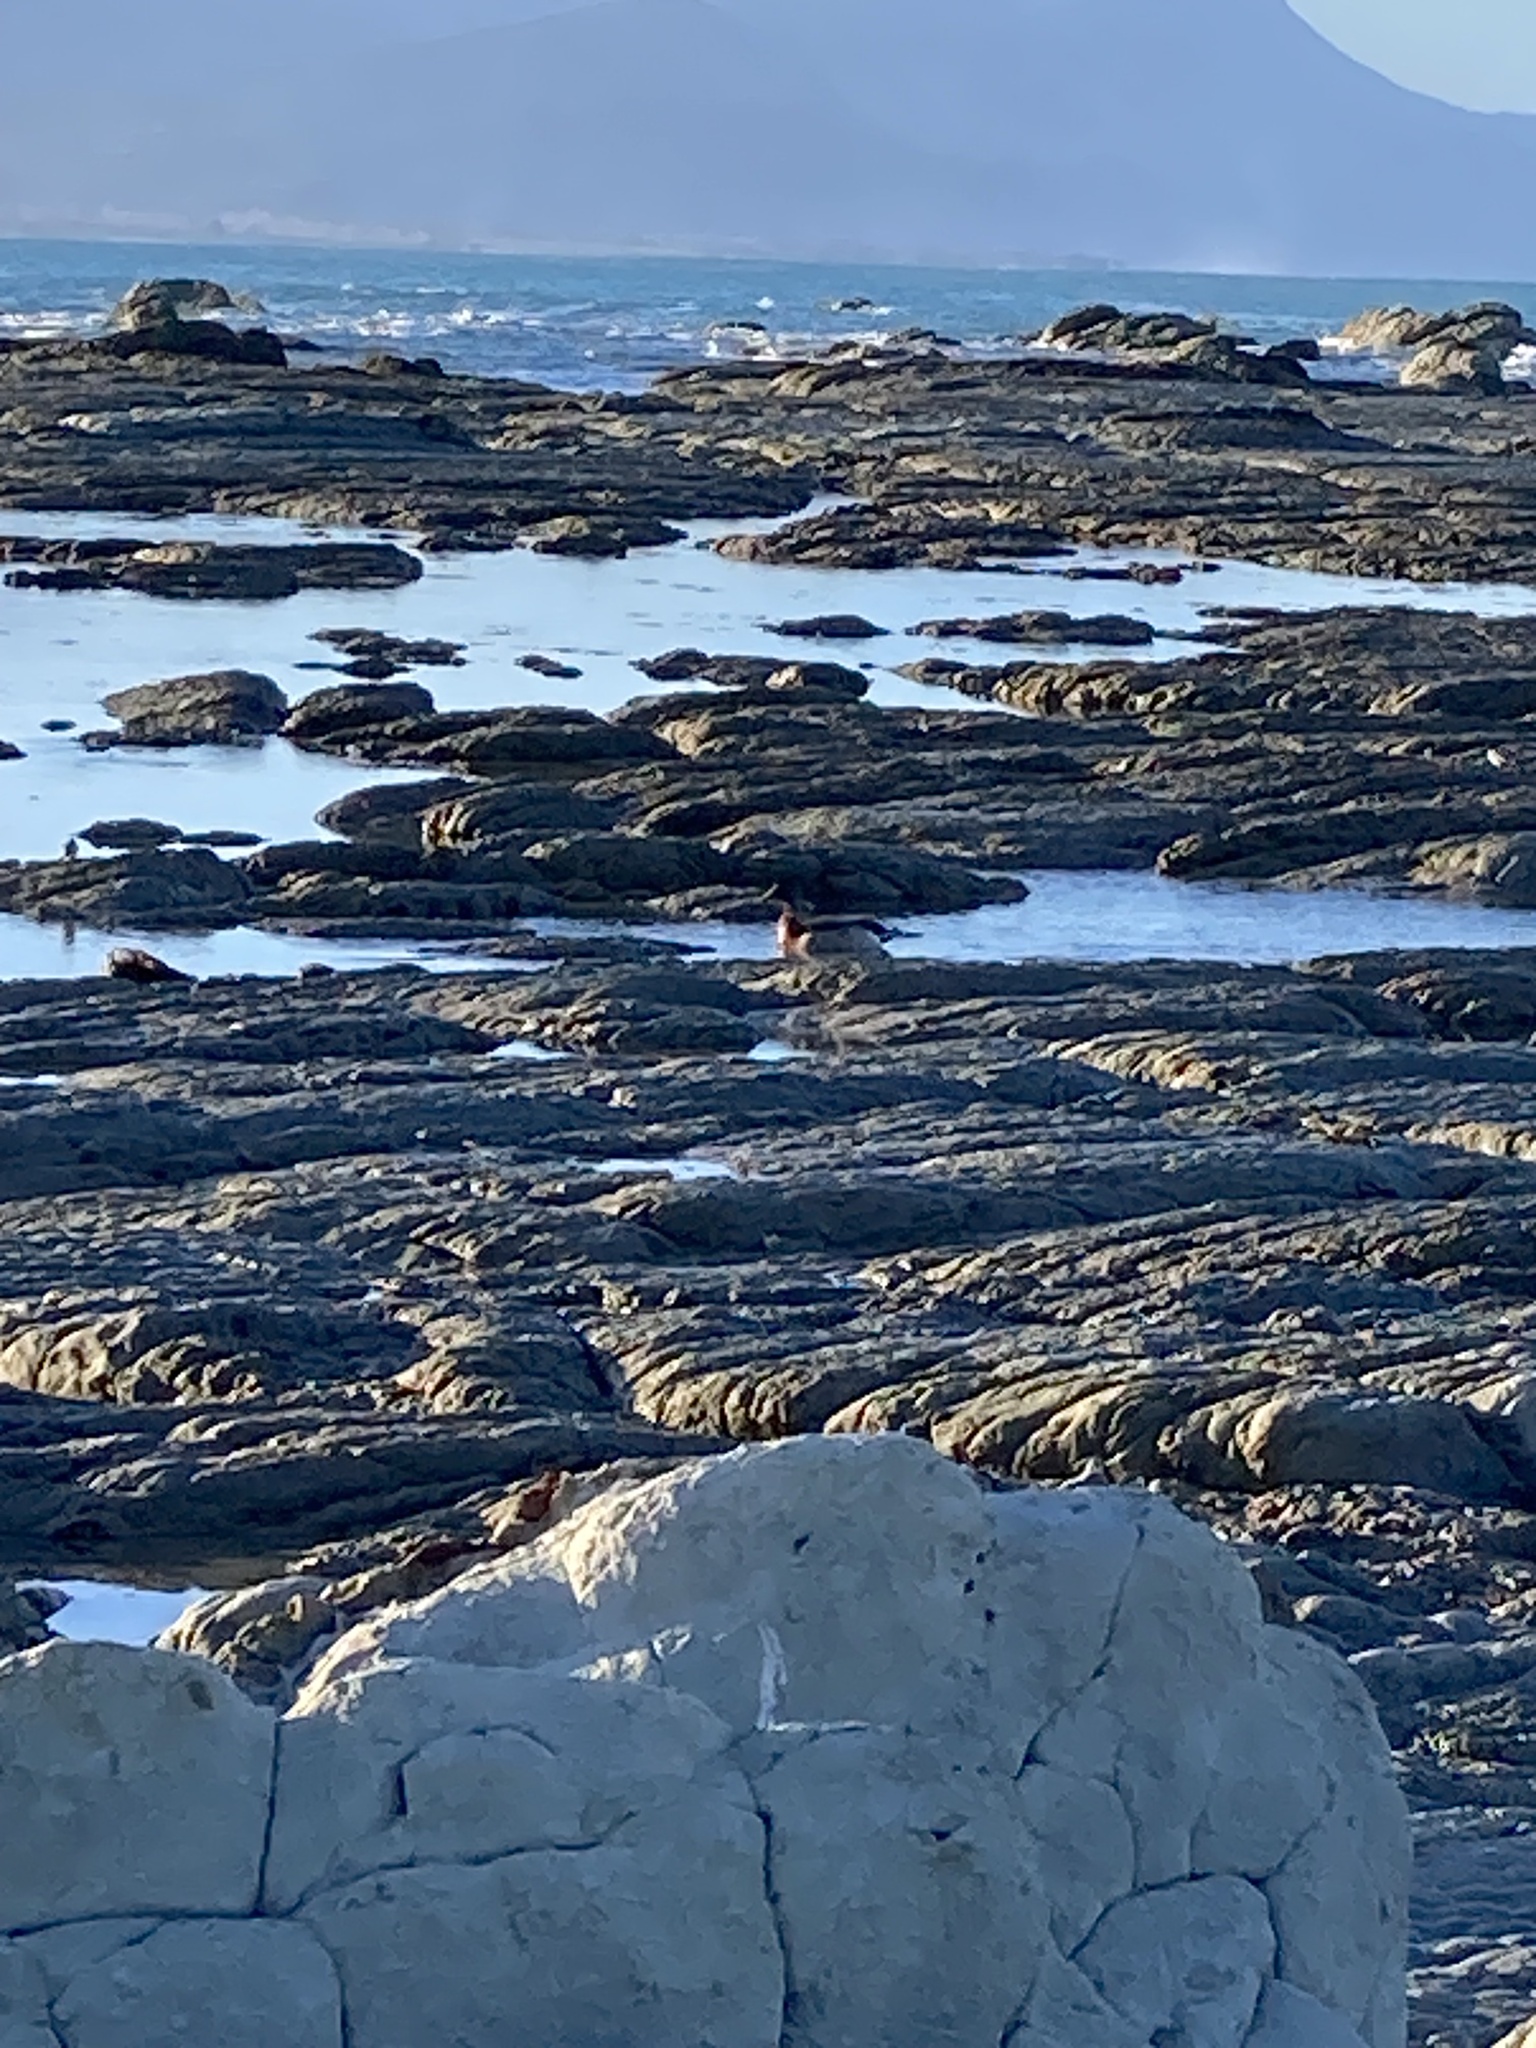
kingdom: Animalia
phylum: Chordata
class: Aves
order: Anseriformes
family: Anatidae
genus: Anas
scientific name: Anas platyrhynchos
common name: Mallard
